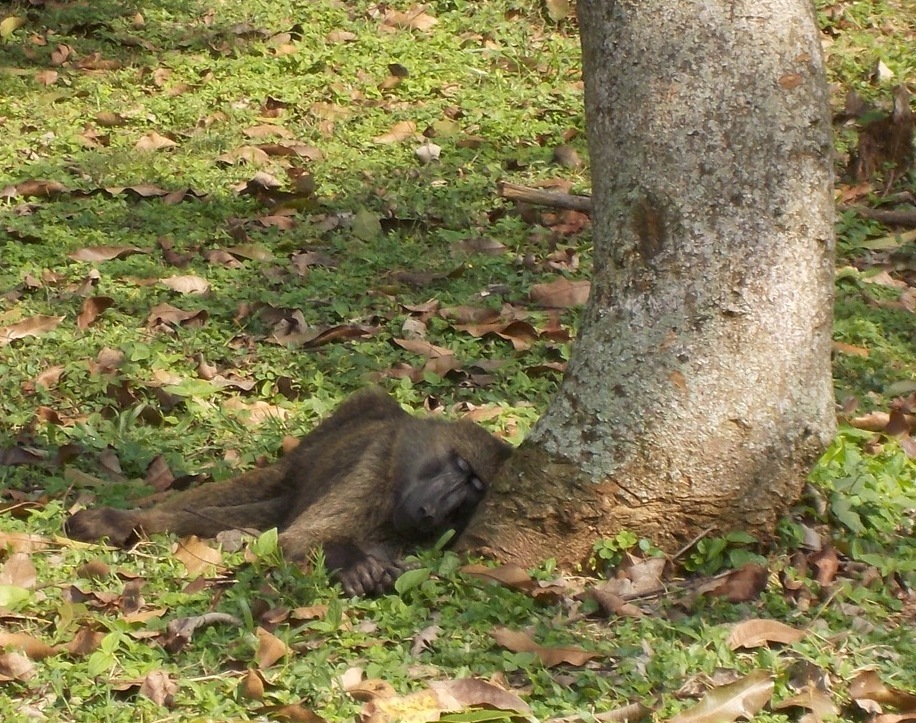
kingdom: Animalia
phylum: Chordata
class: Mammalia
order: Primates
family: Cercopithecidae
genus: Papio
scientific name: Papio anubis
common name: Olive baboon
